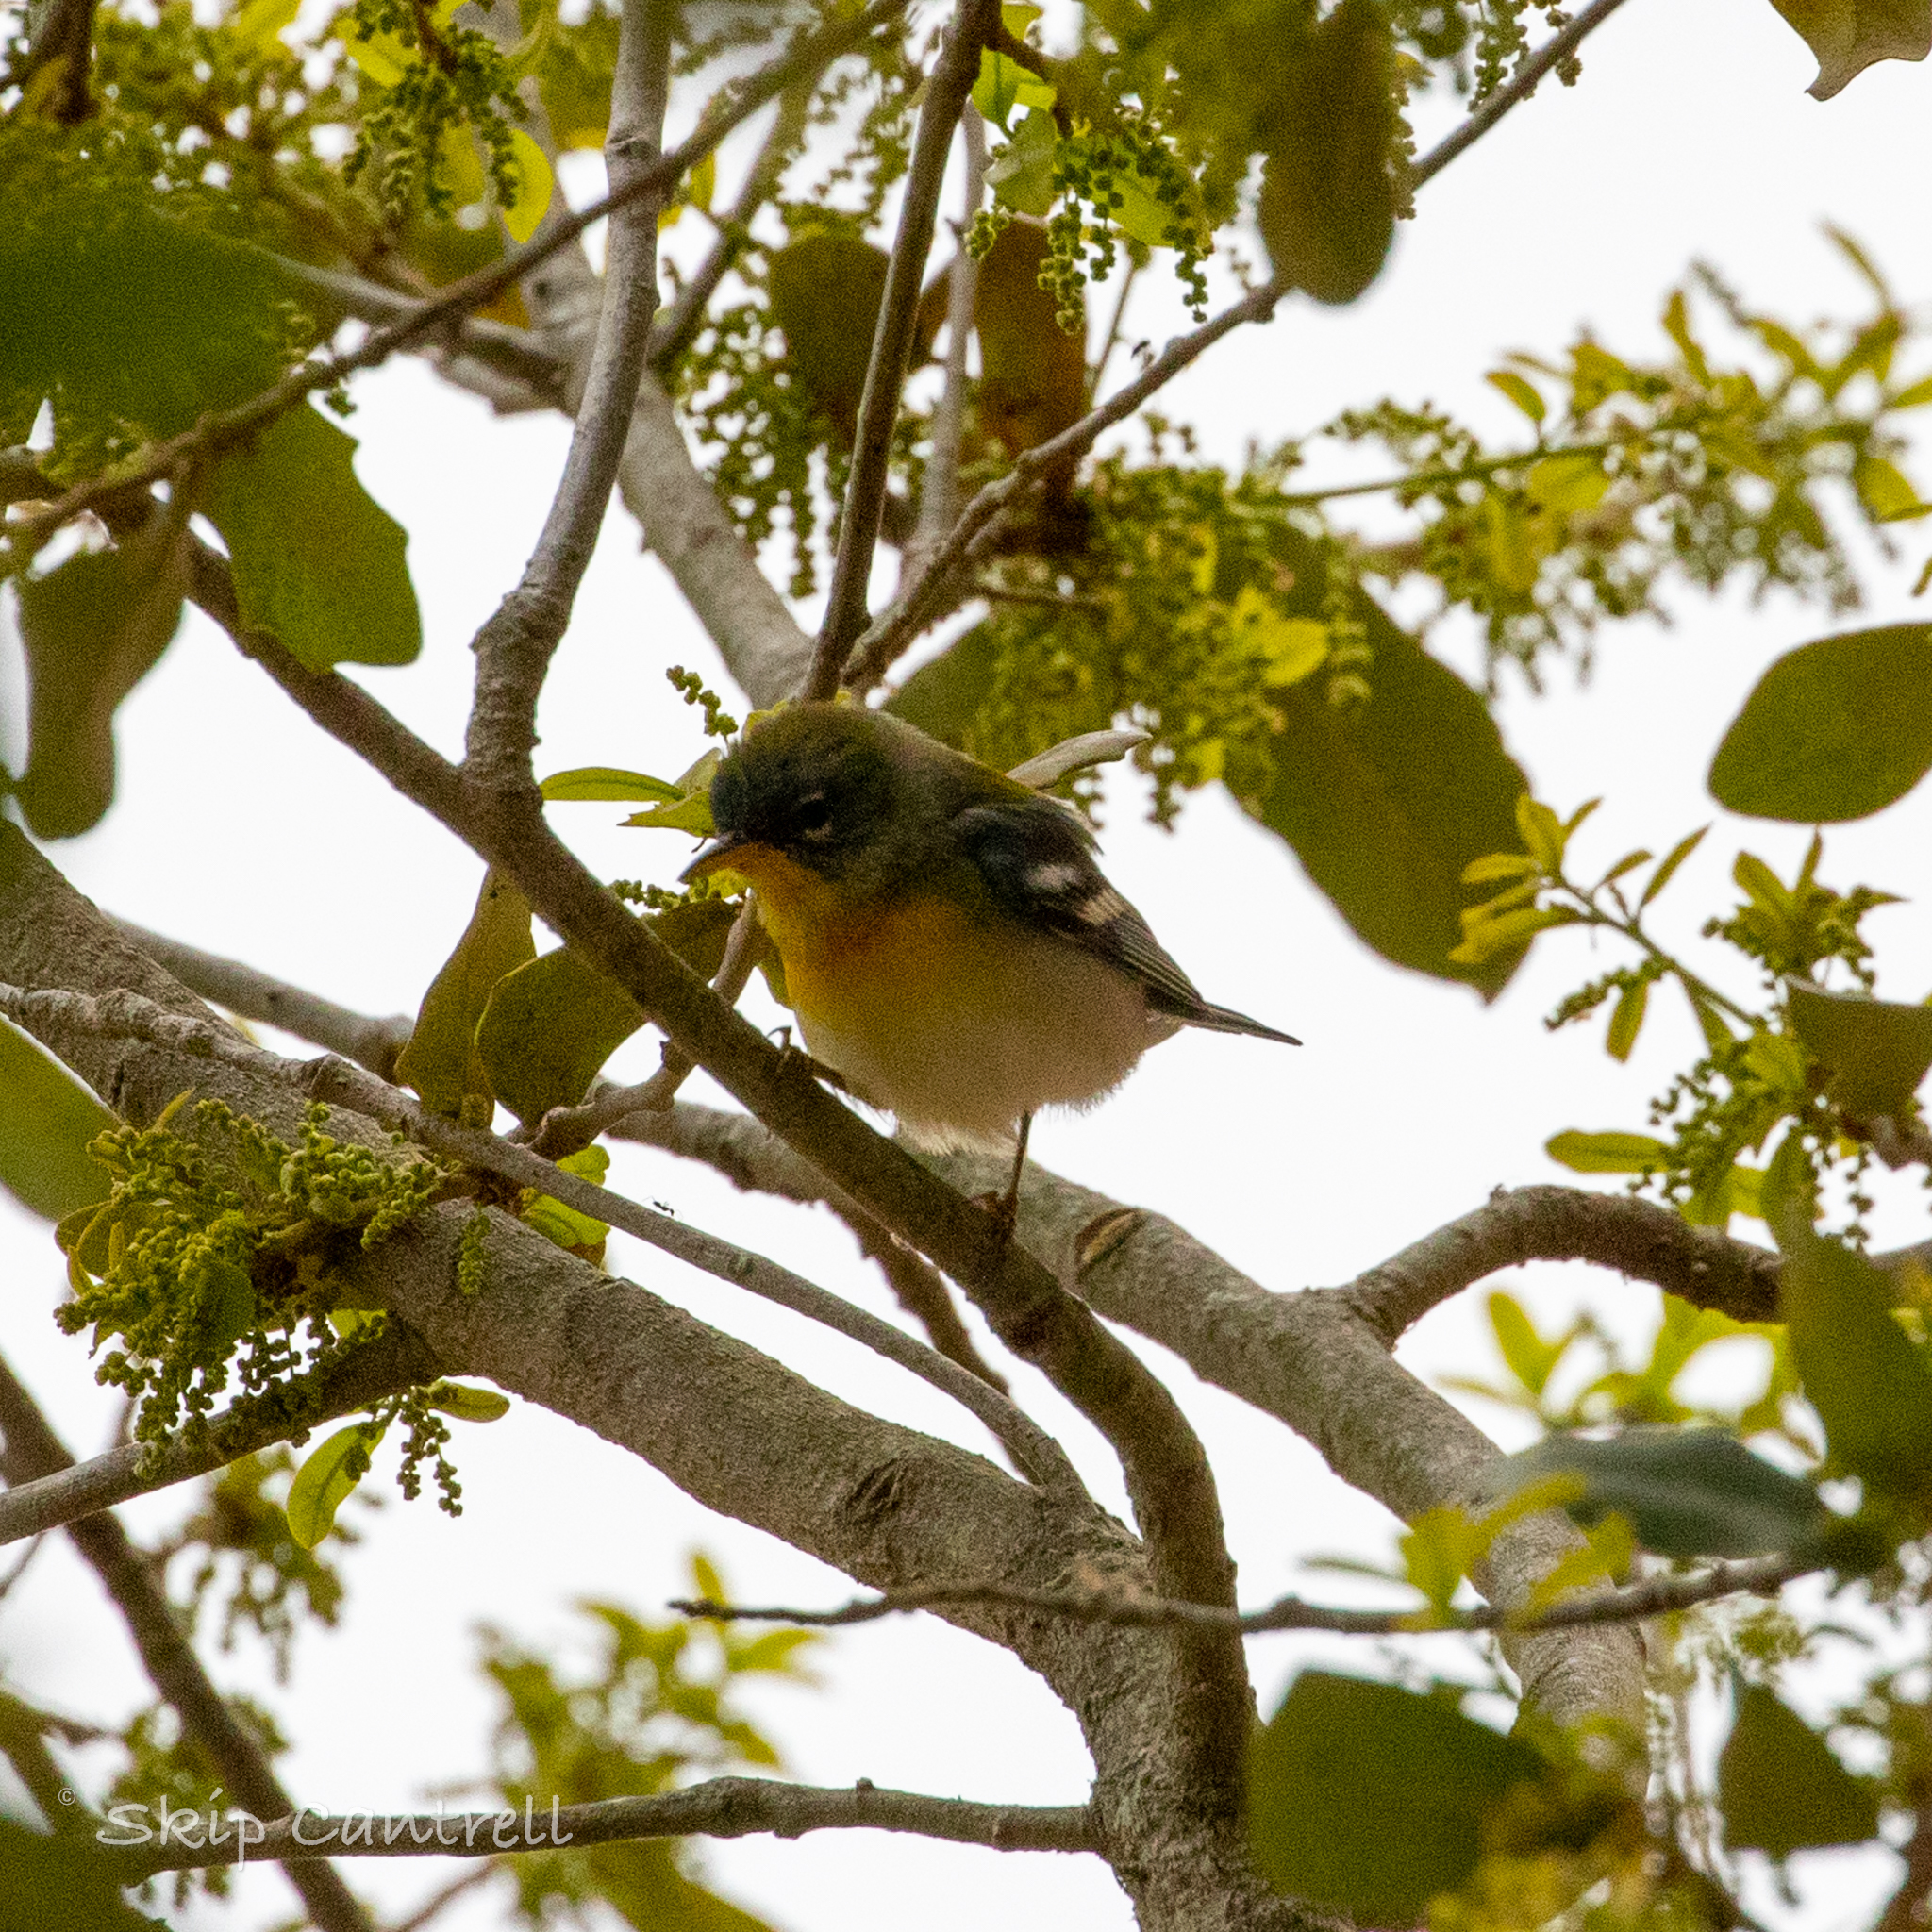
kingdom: Animalia
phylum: Chordata
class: Aves
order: Passeriformes
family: Parulidae
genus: Setophaga
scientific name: Setophaga americana
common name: Northern parula
